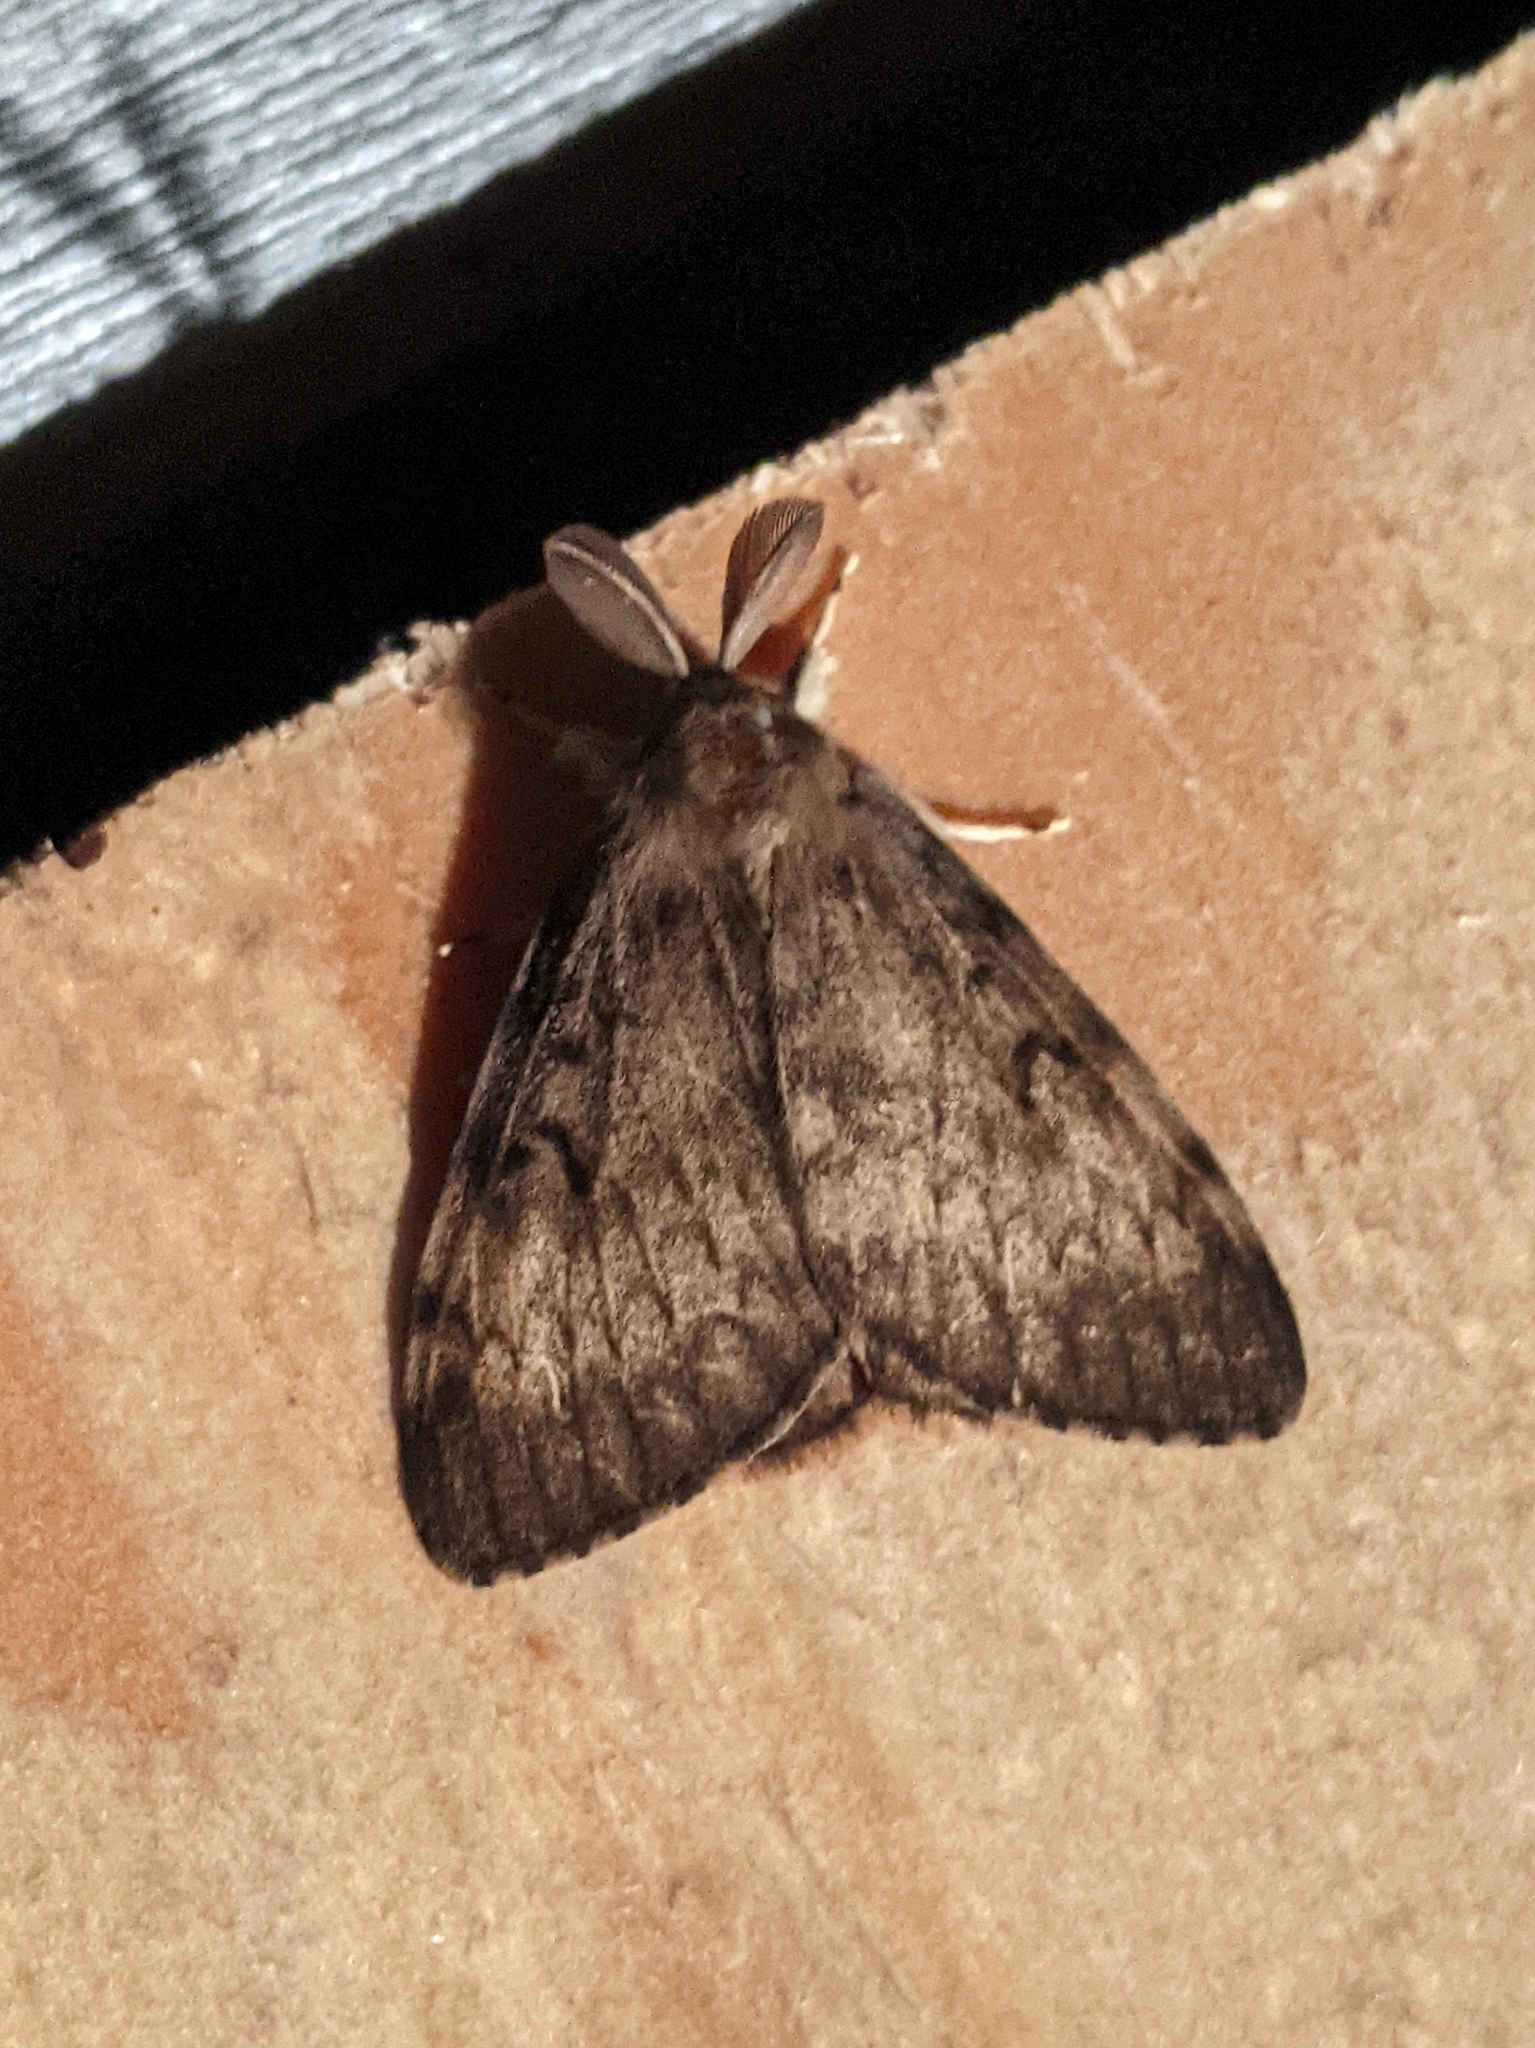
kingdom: Animalia
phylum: Arthropoda
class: Insecta
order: Lepidoptera
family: Erebidae
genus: Lymantria
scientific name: Lymantria dispar
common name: Gypsy moth
